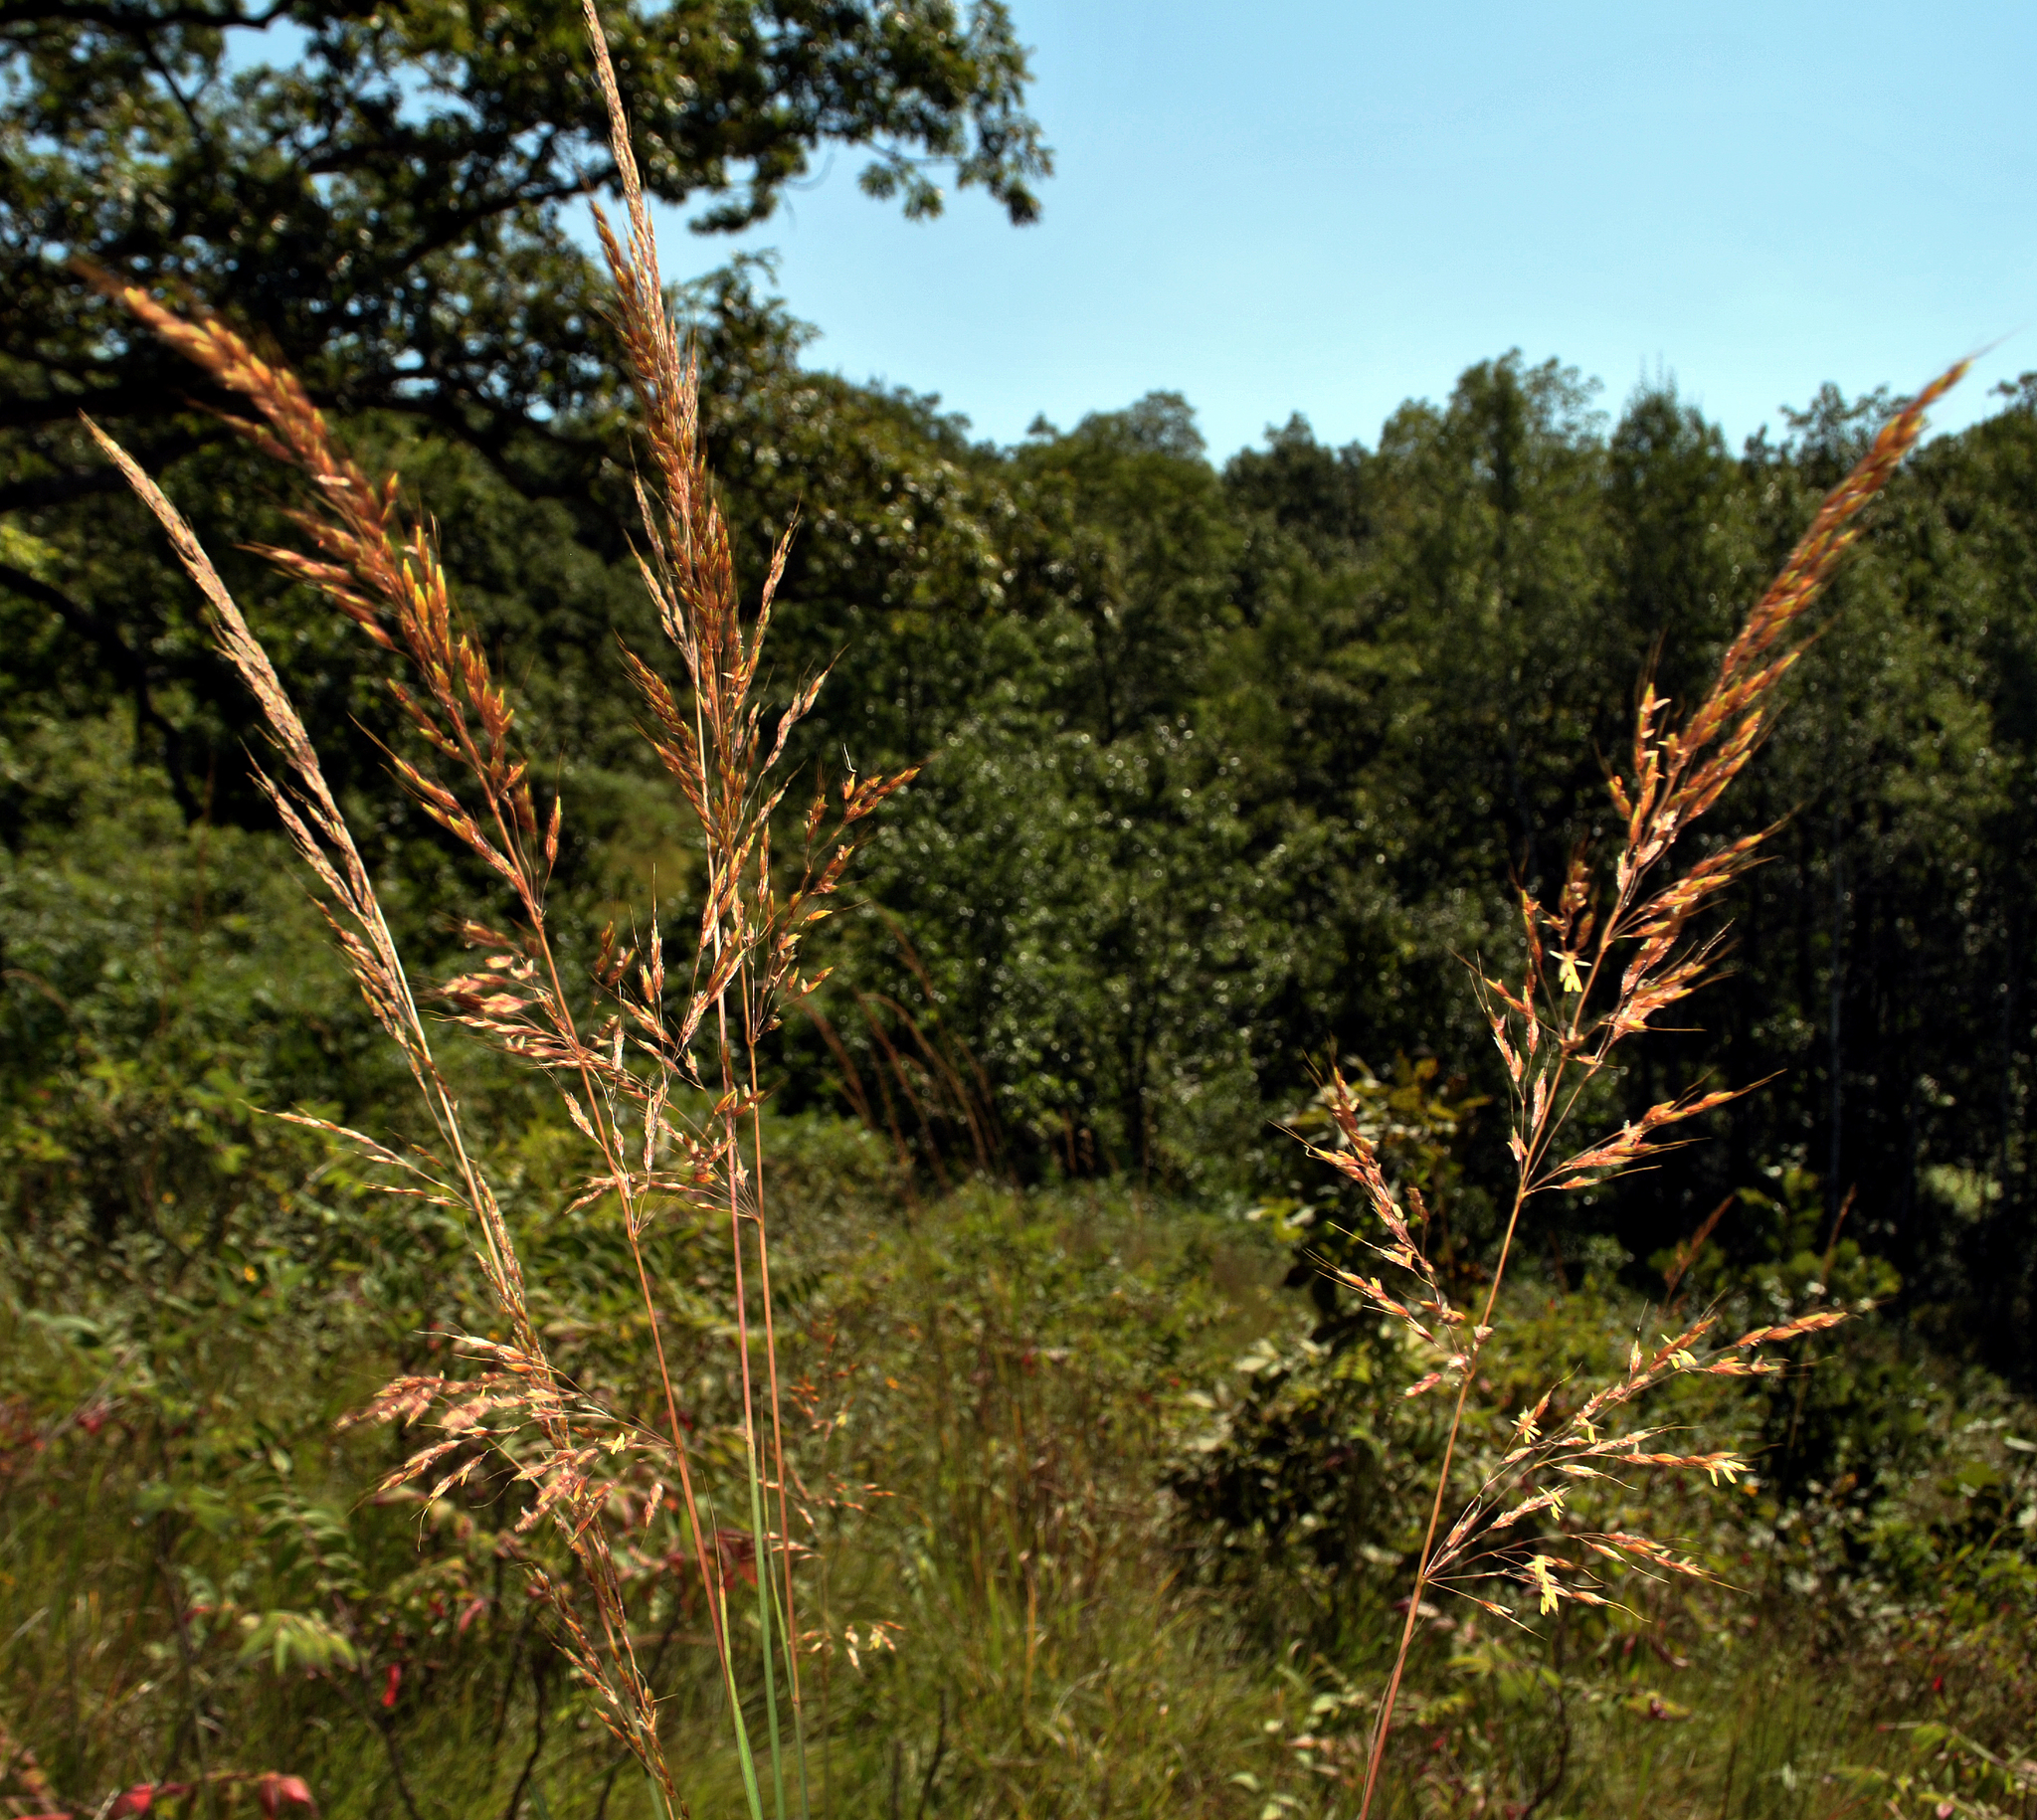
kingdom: Plantae
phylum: Tracheophyta
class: Liliopsida
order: Poales
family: Poaceae
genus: Sorghastrum
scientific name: Sorghastrum nutans
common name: Indian grass
